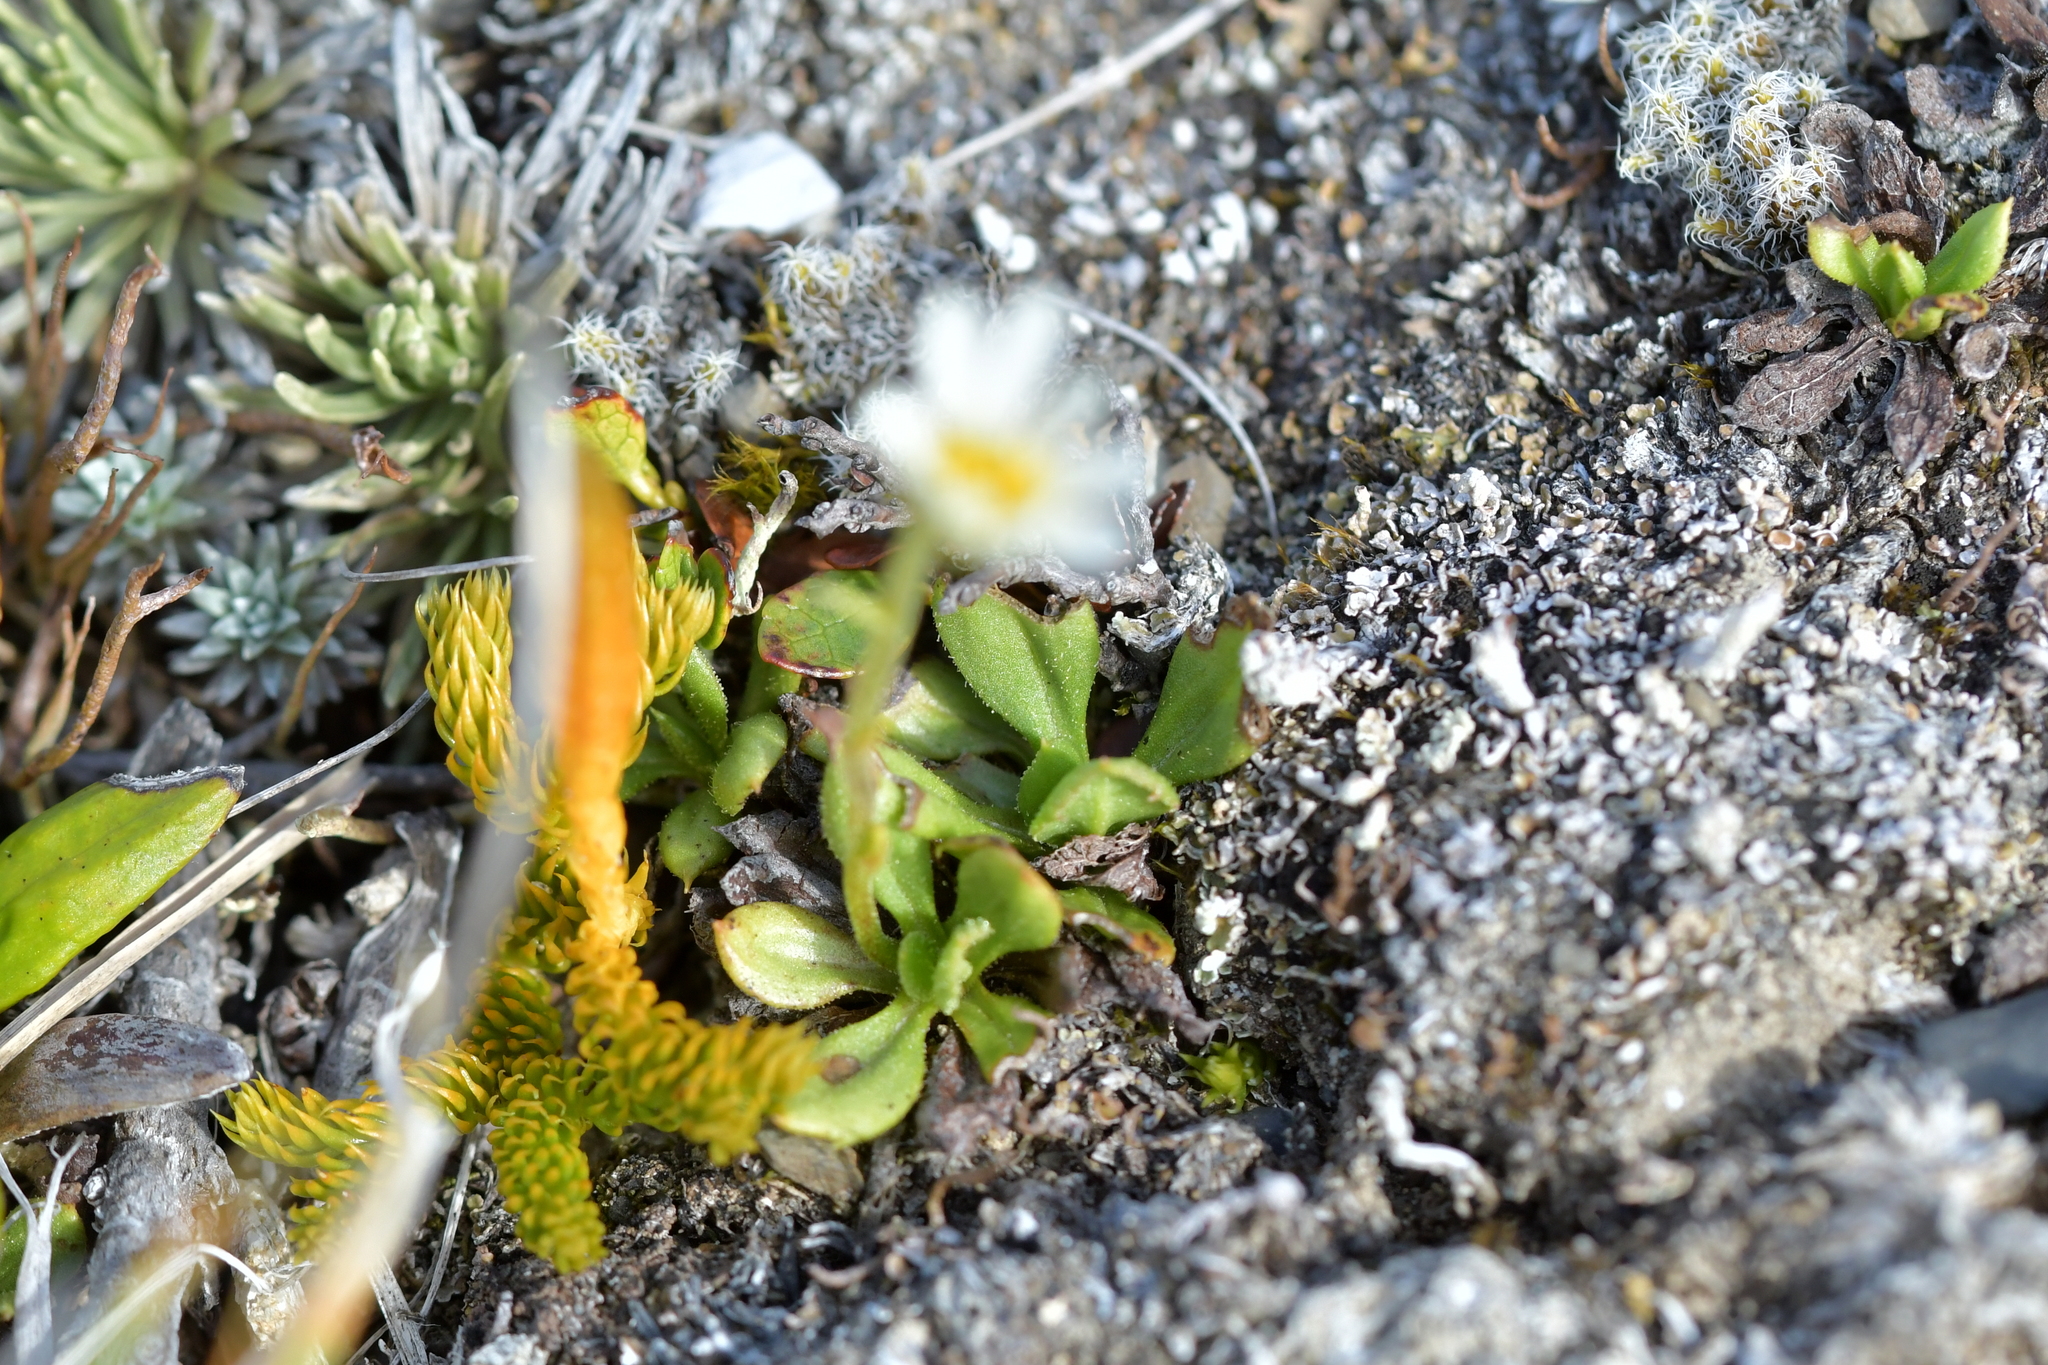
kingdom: Plantae
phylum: Tracheophyta
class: Magnoliopsida
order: Asterales
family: Asteraceae
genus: Celmisia
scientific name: Celmisia glandulosa
